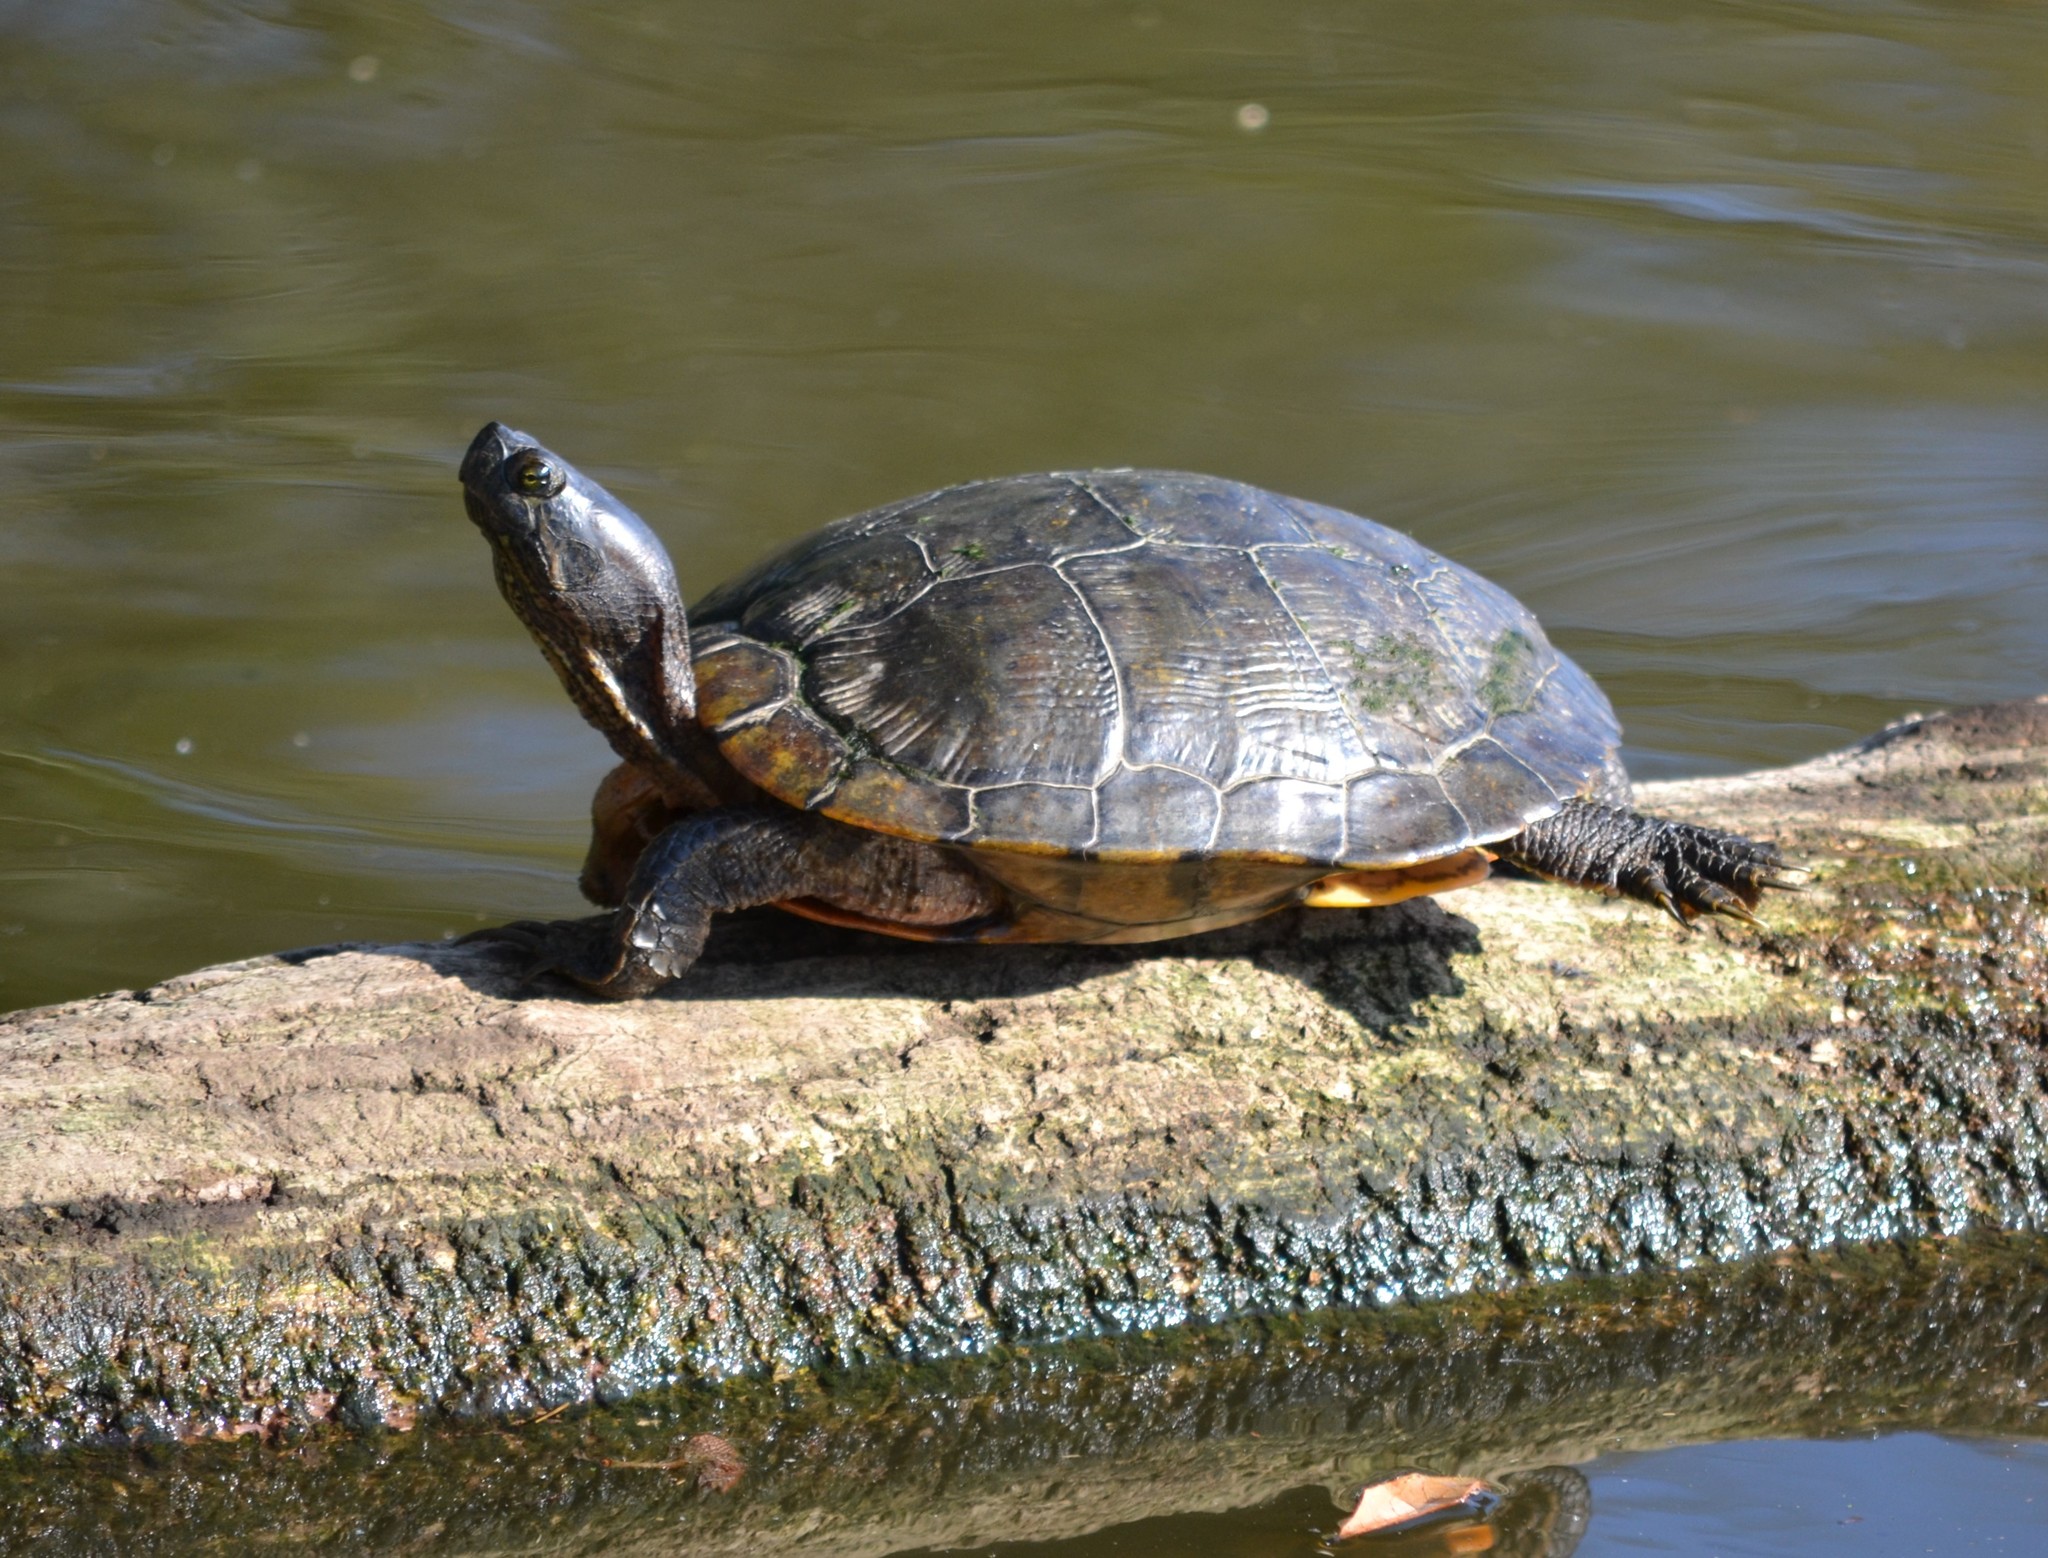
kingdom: Animalia
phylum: Chordata
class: Testudines
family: Emydidae
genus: Trachemys
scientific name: Trachemys scripta
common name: Slider
